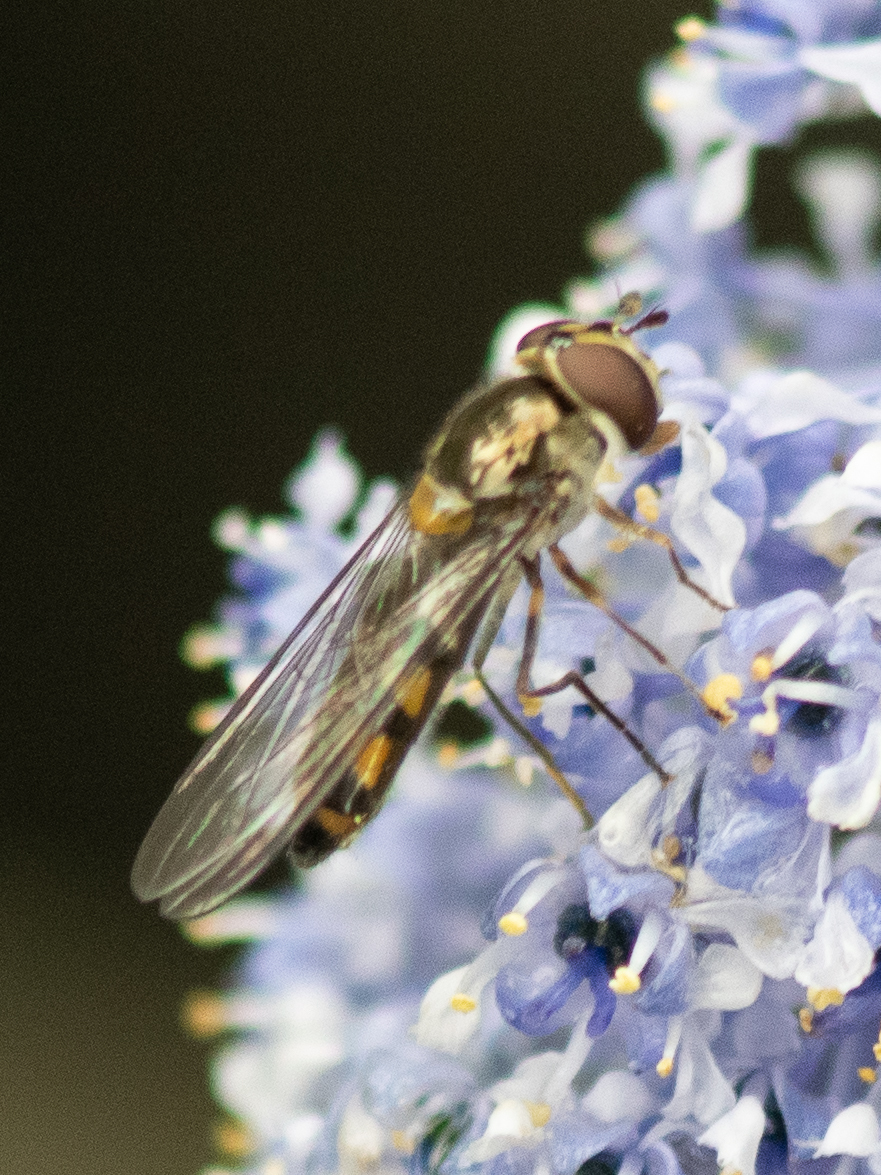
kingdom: Animalia
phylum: Arthropoda
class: Insecta
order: Diptera
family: Syrphidae
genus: Meliscaeva
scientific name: Meliscaeva auricollis
